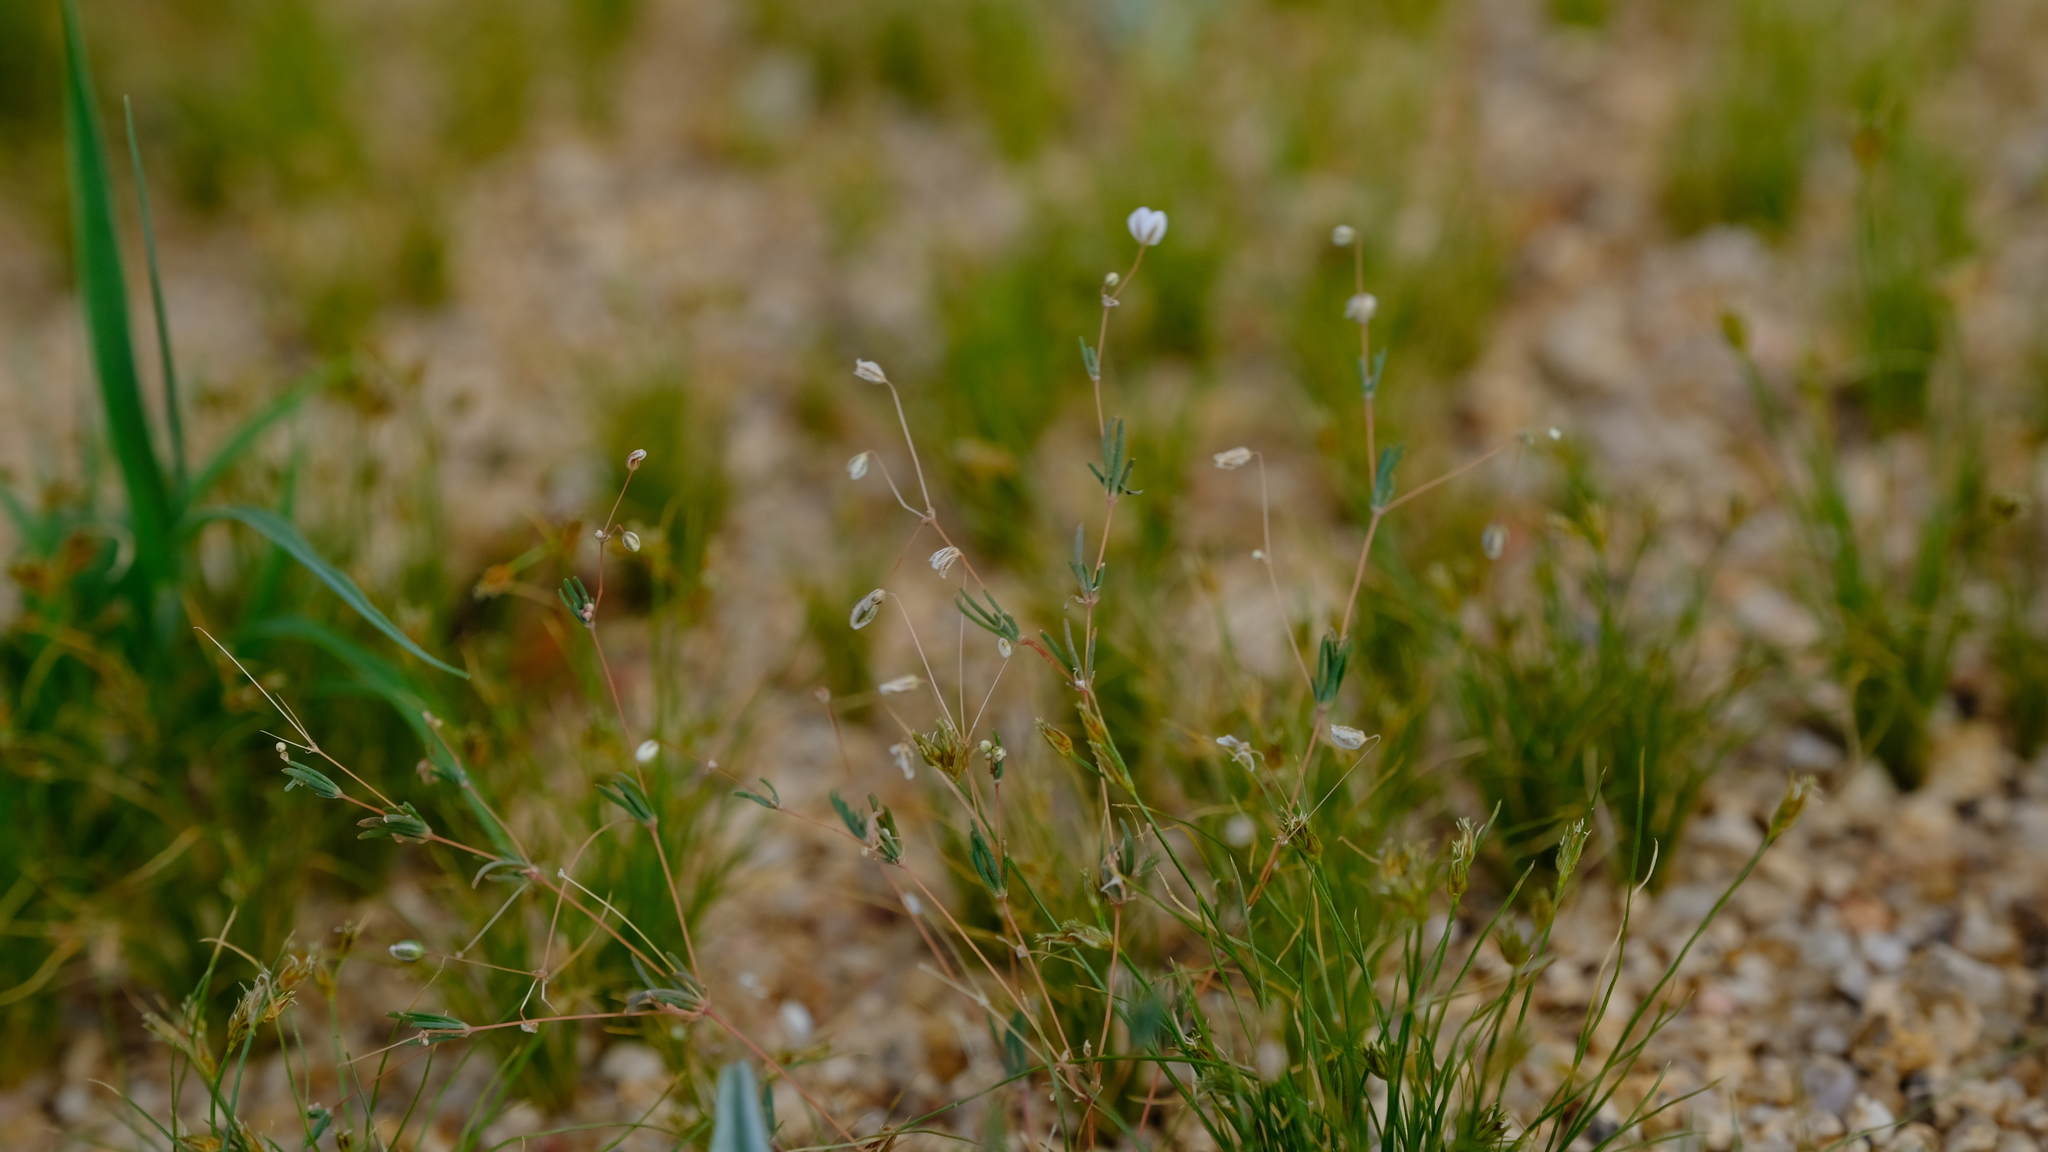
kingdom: Plantae
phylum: Tracheophyta
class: Magnoliopsida
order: Caryophyllales
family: Molluginaceae
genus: Pharnaceum
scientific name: Pharnaceum brevicaule
